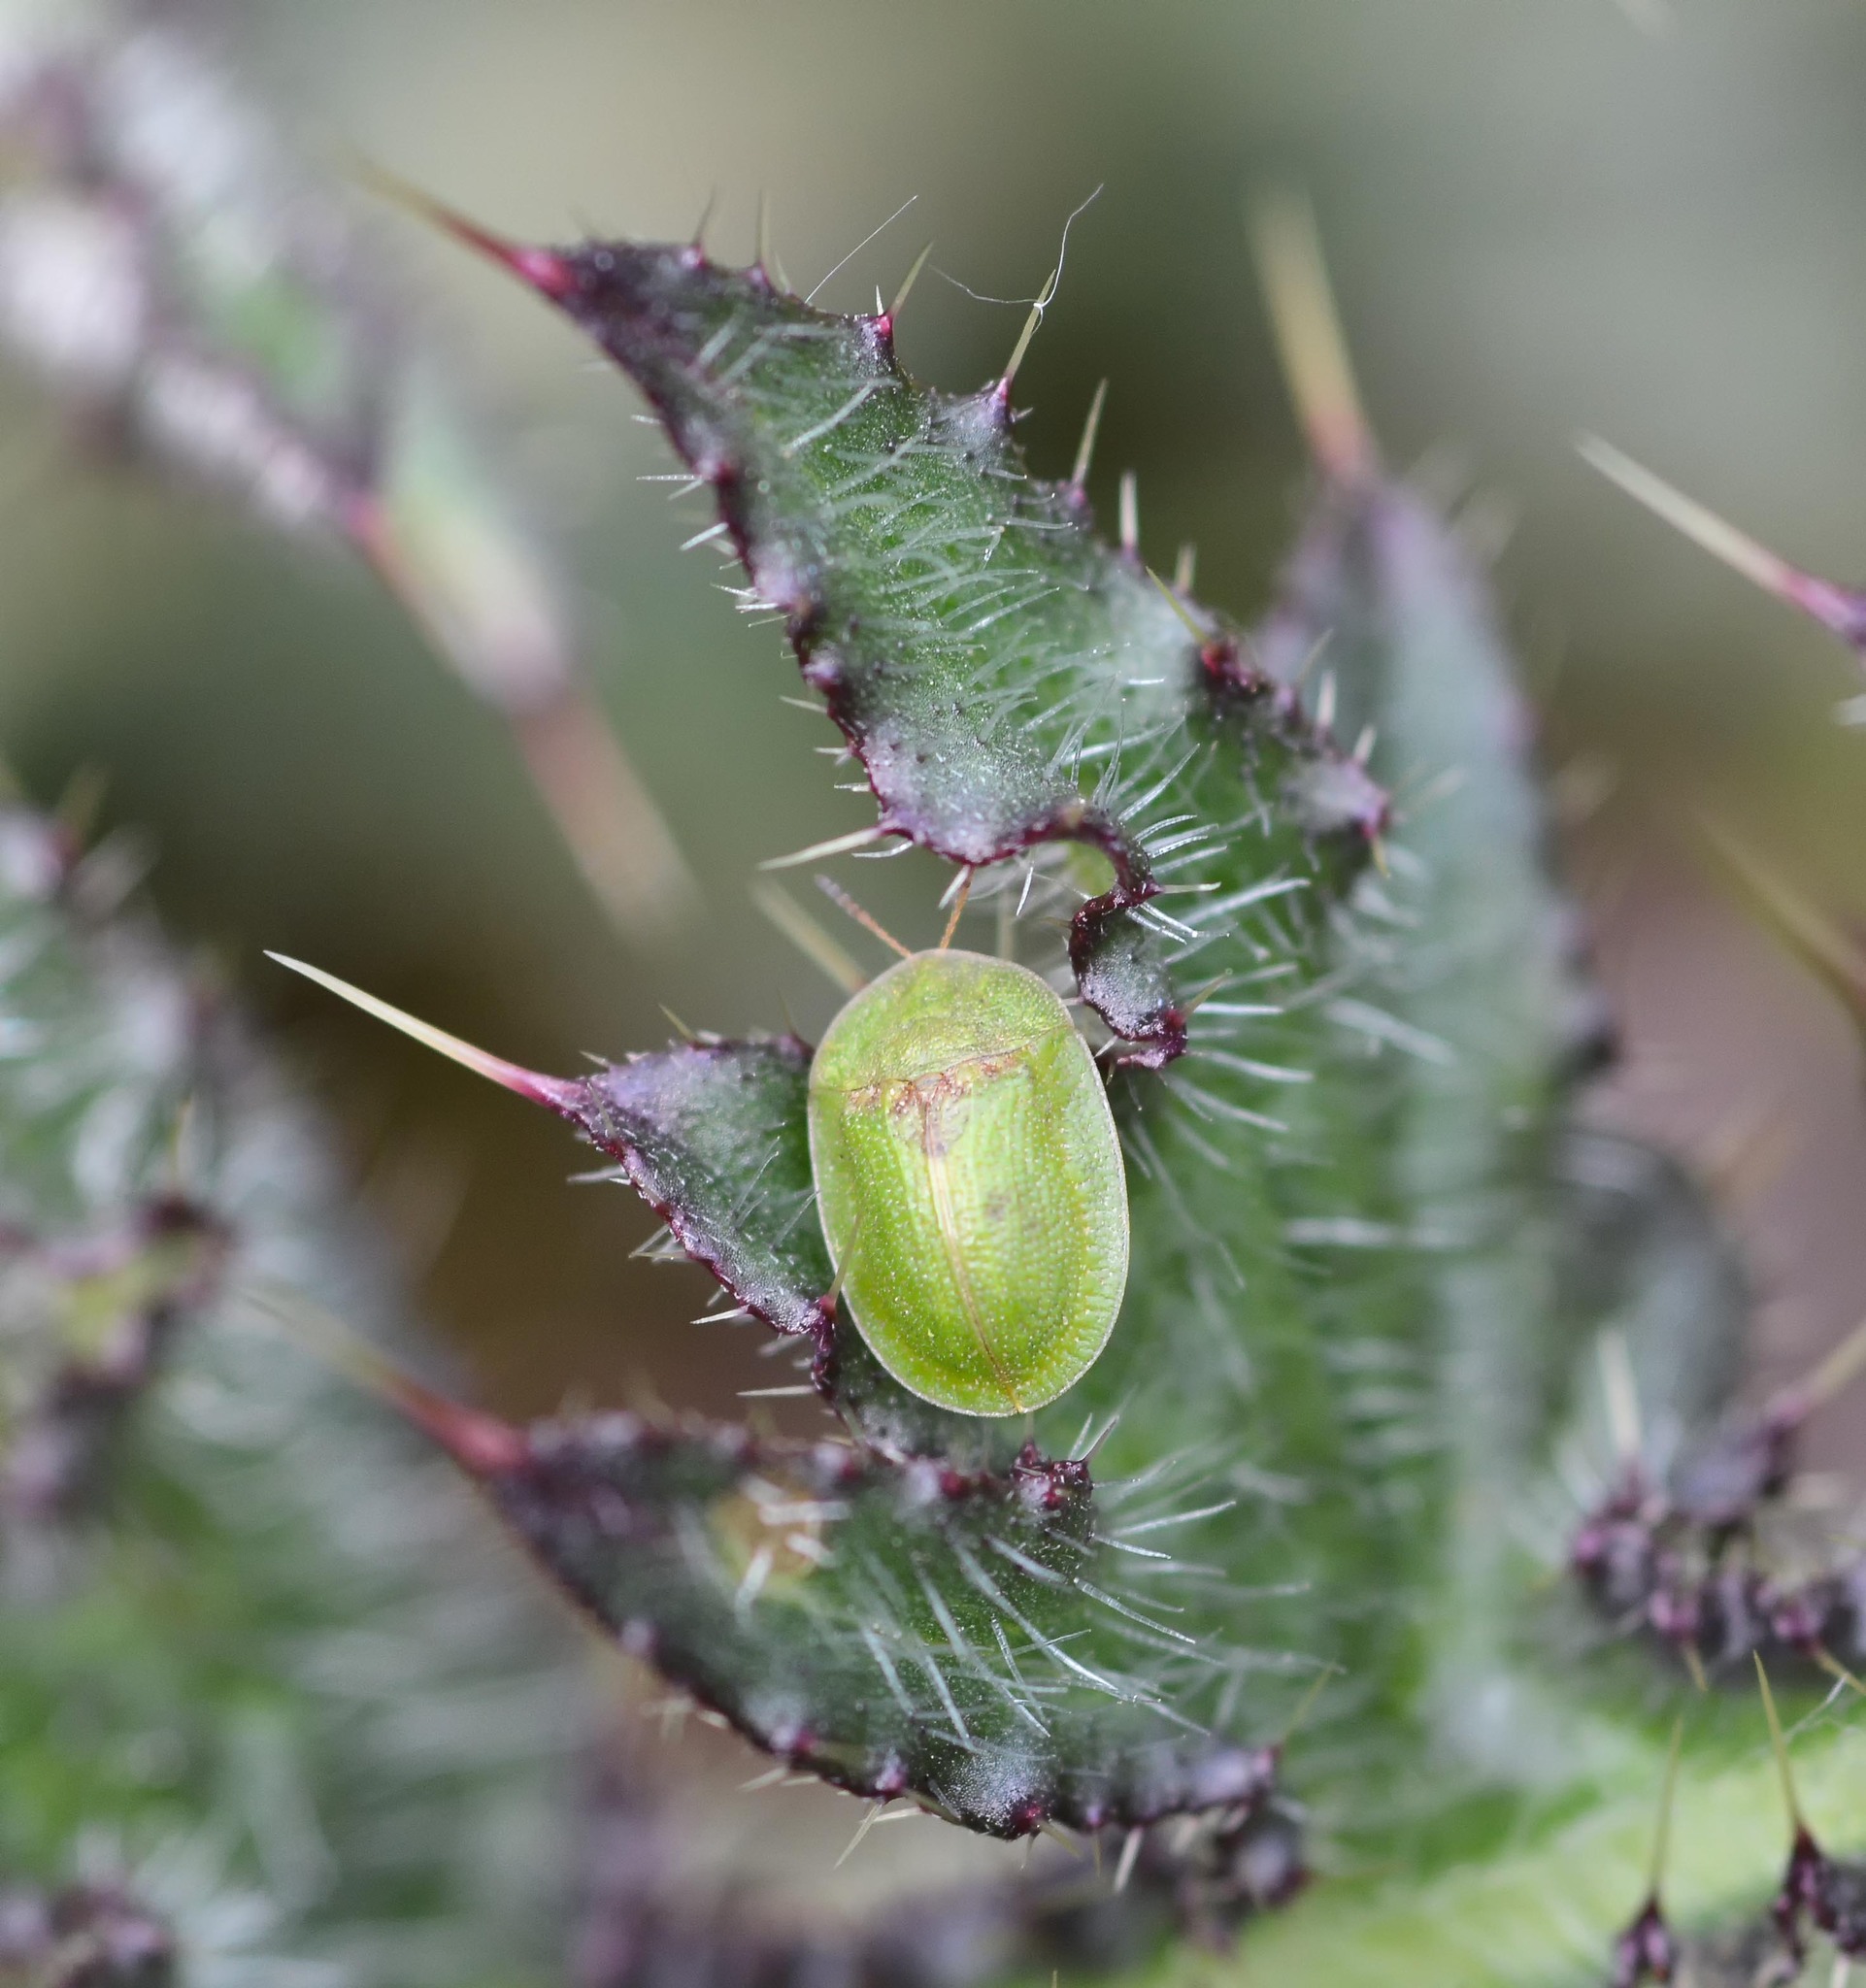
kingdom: Animalia
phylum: Arthropoda
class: Insecta
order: Coleoptera
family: Chrysomelidae
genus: Cassida
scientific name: Cassida rubiginosa
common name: Thistle tortoise beetle
